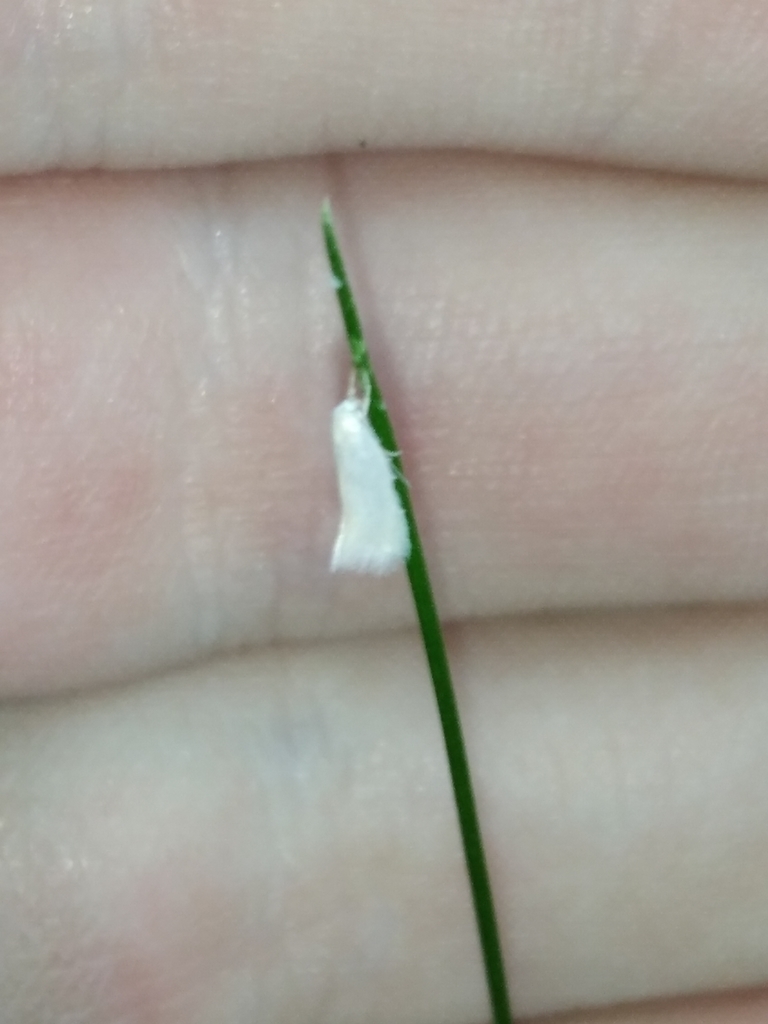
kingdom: Animalia
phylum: Arthropoda
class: Insecta
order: Lepidoptera
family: Elachistidae
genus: Elachista
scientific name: Elachista argentella
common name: Swan-feather dwarf
